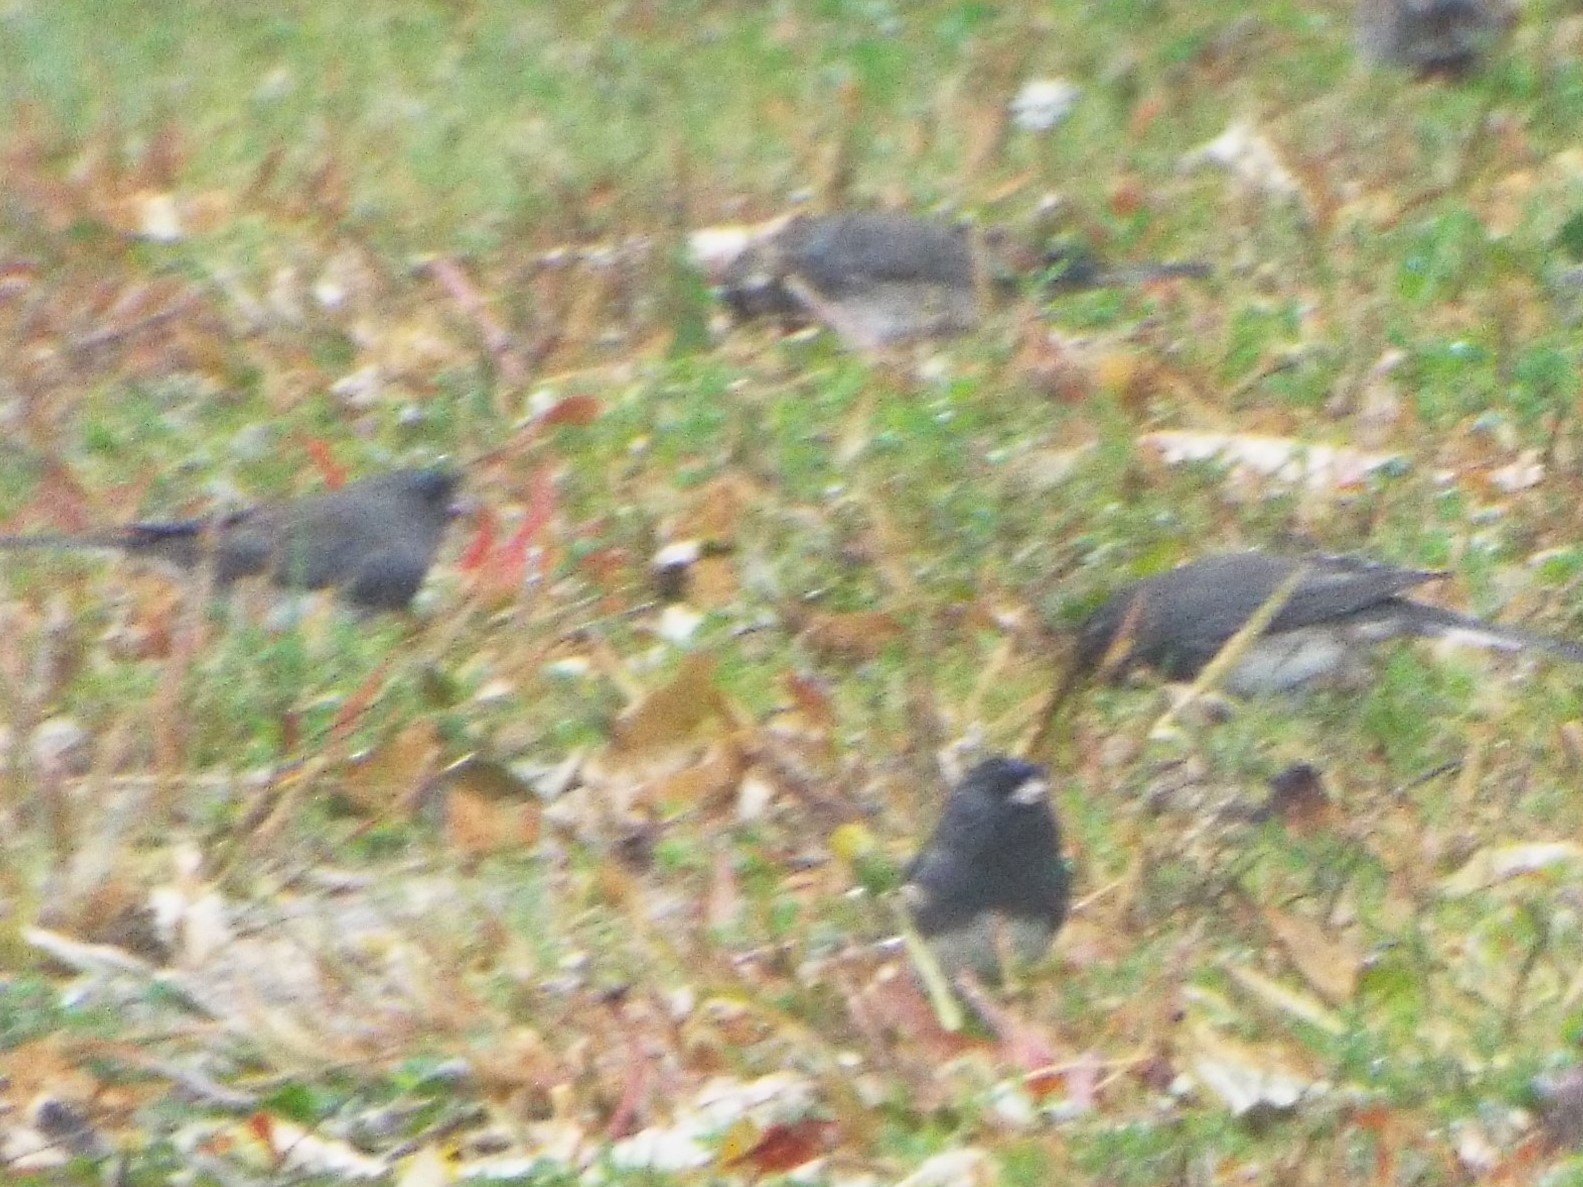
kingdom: Animalia
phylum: Chordata
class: Aves
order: Passeriformes
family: Passerellidae
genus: Junco
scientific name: Junco hyemalis
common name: Dark-eyed junco
